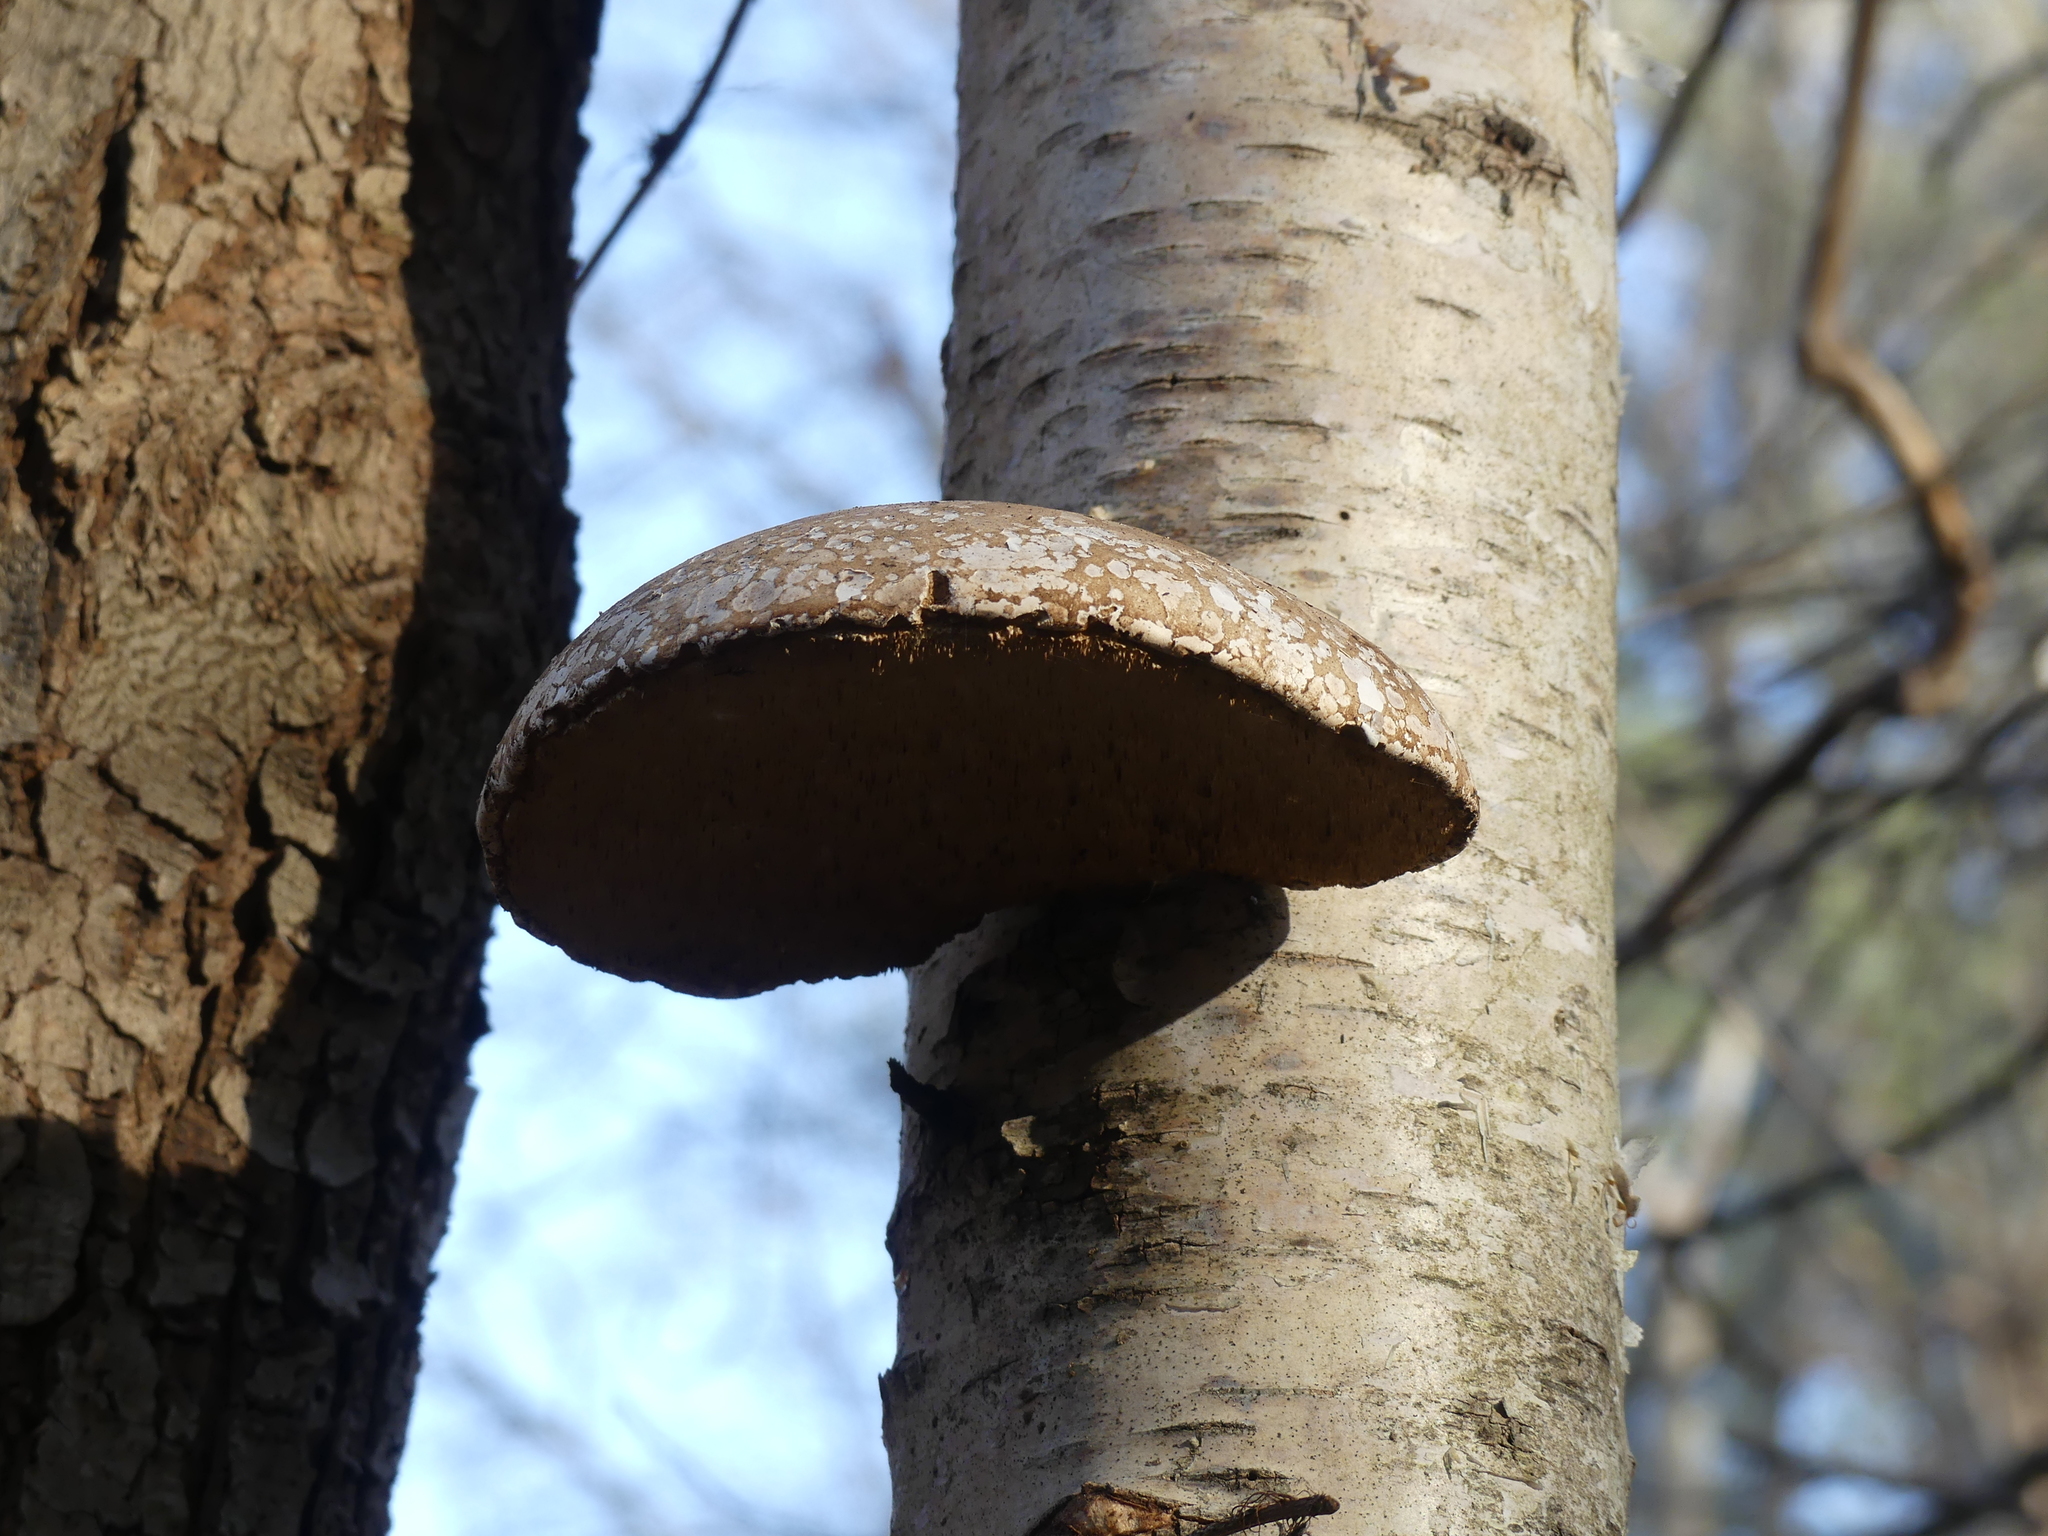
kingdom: Fungi
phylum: Basidiomycota
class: Agaricomycetes
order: Polyporales
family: Fomitopsidaceae
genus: Fomitopsis
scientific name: Fomitopsis betulina
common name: Birch polypore
